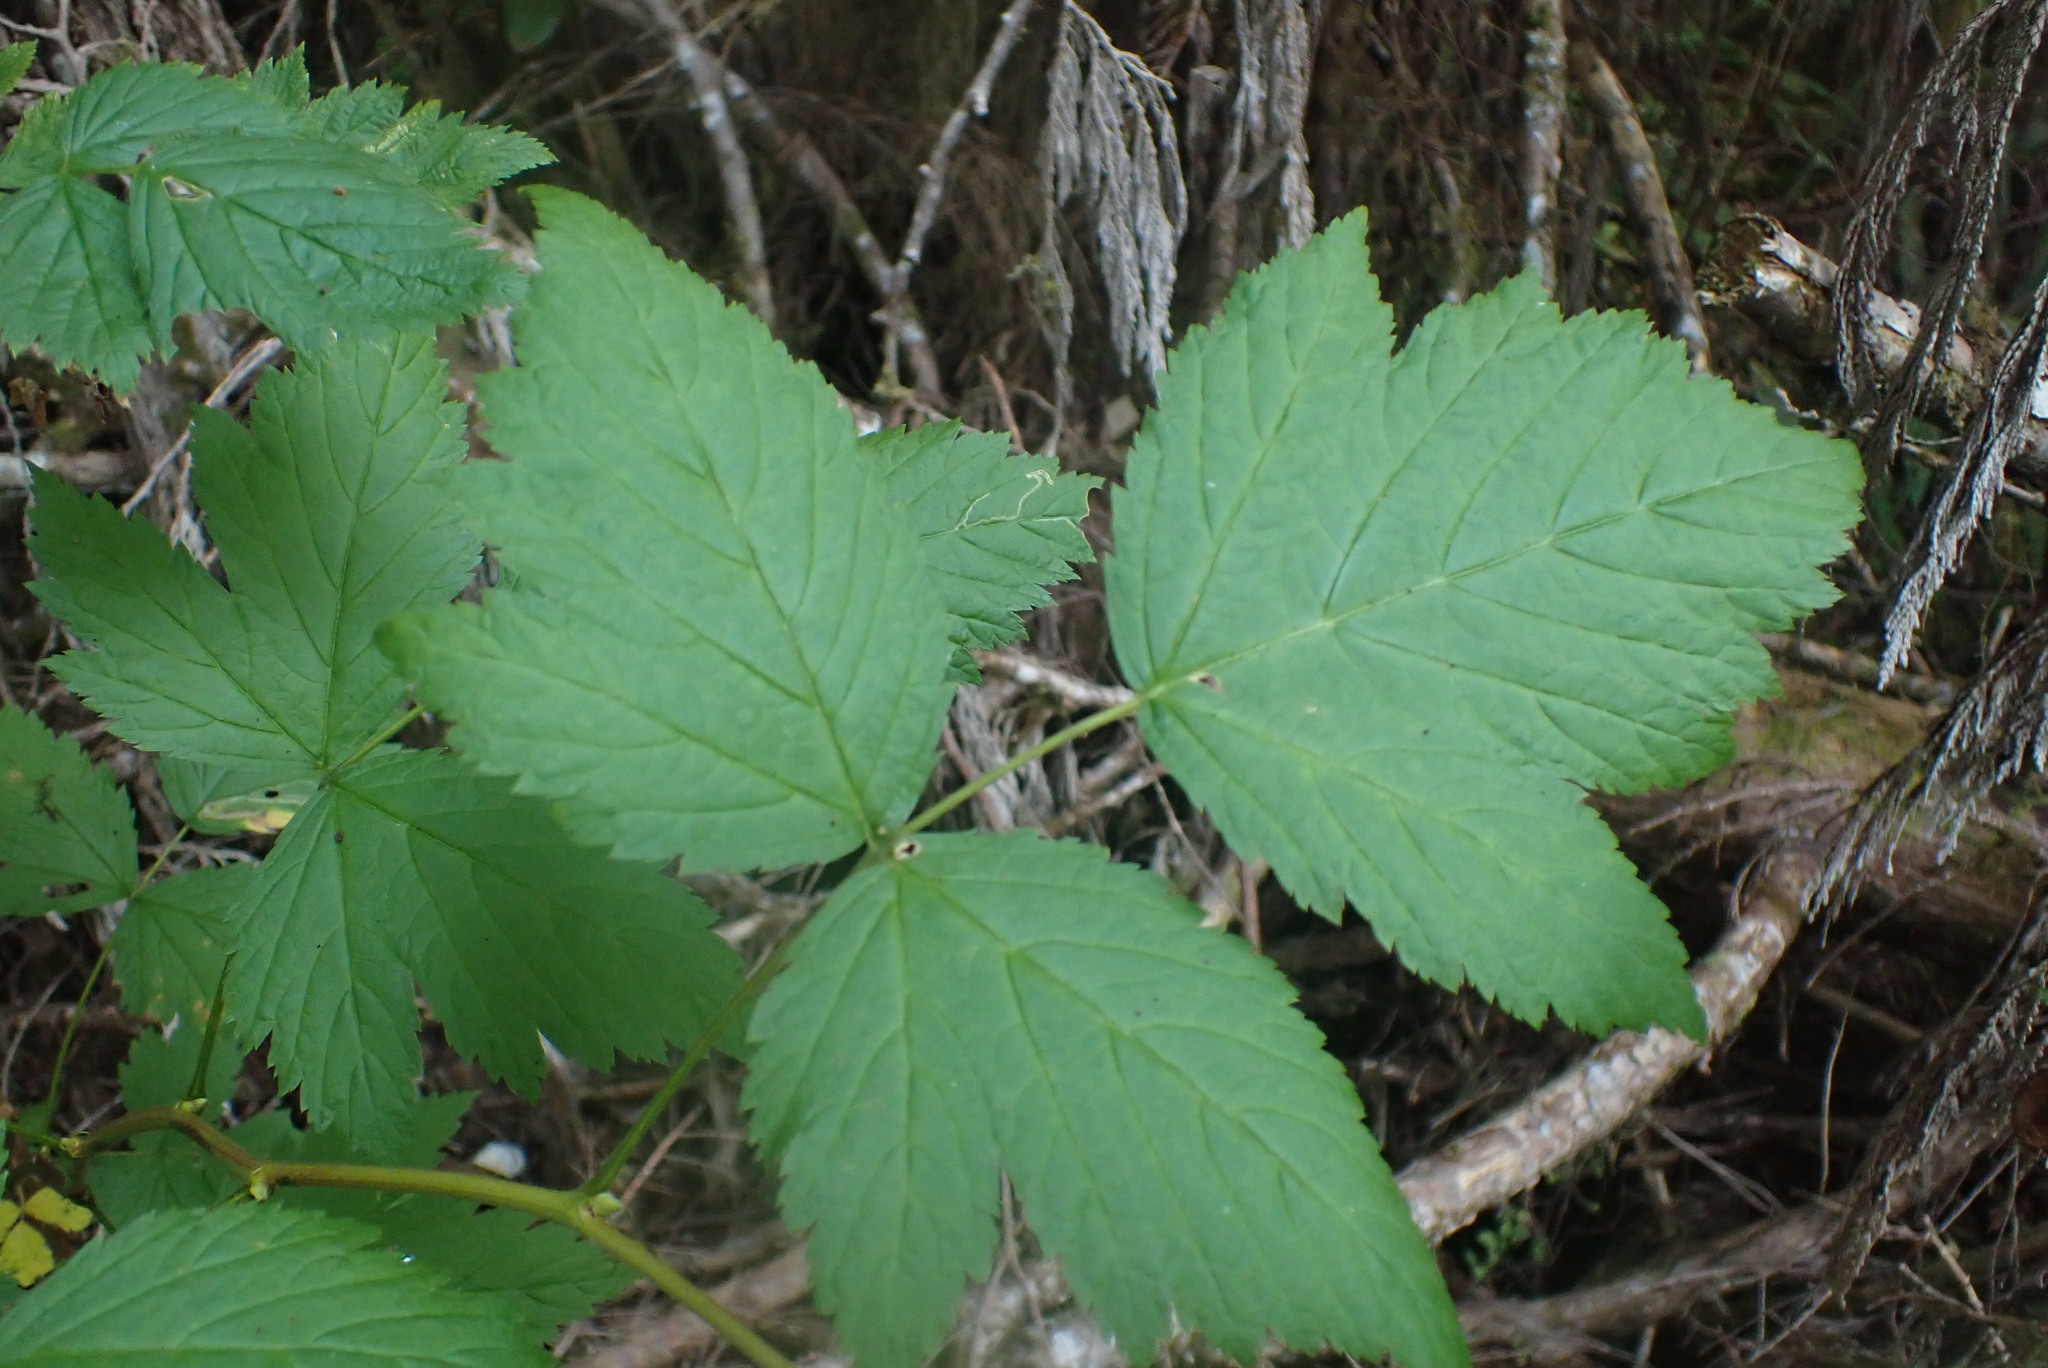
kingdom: Plantae
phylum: Tracheophyta
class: Magnoliopsida
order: Rosales
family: Rosaceae
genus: Rubus
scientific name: Rubus spectabilis
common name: Salmonberry
